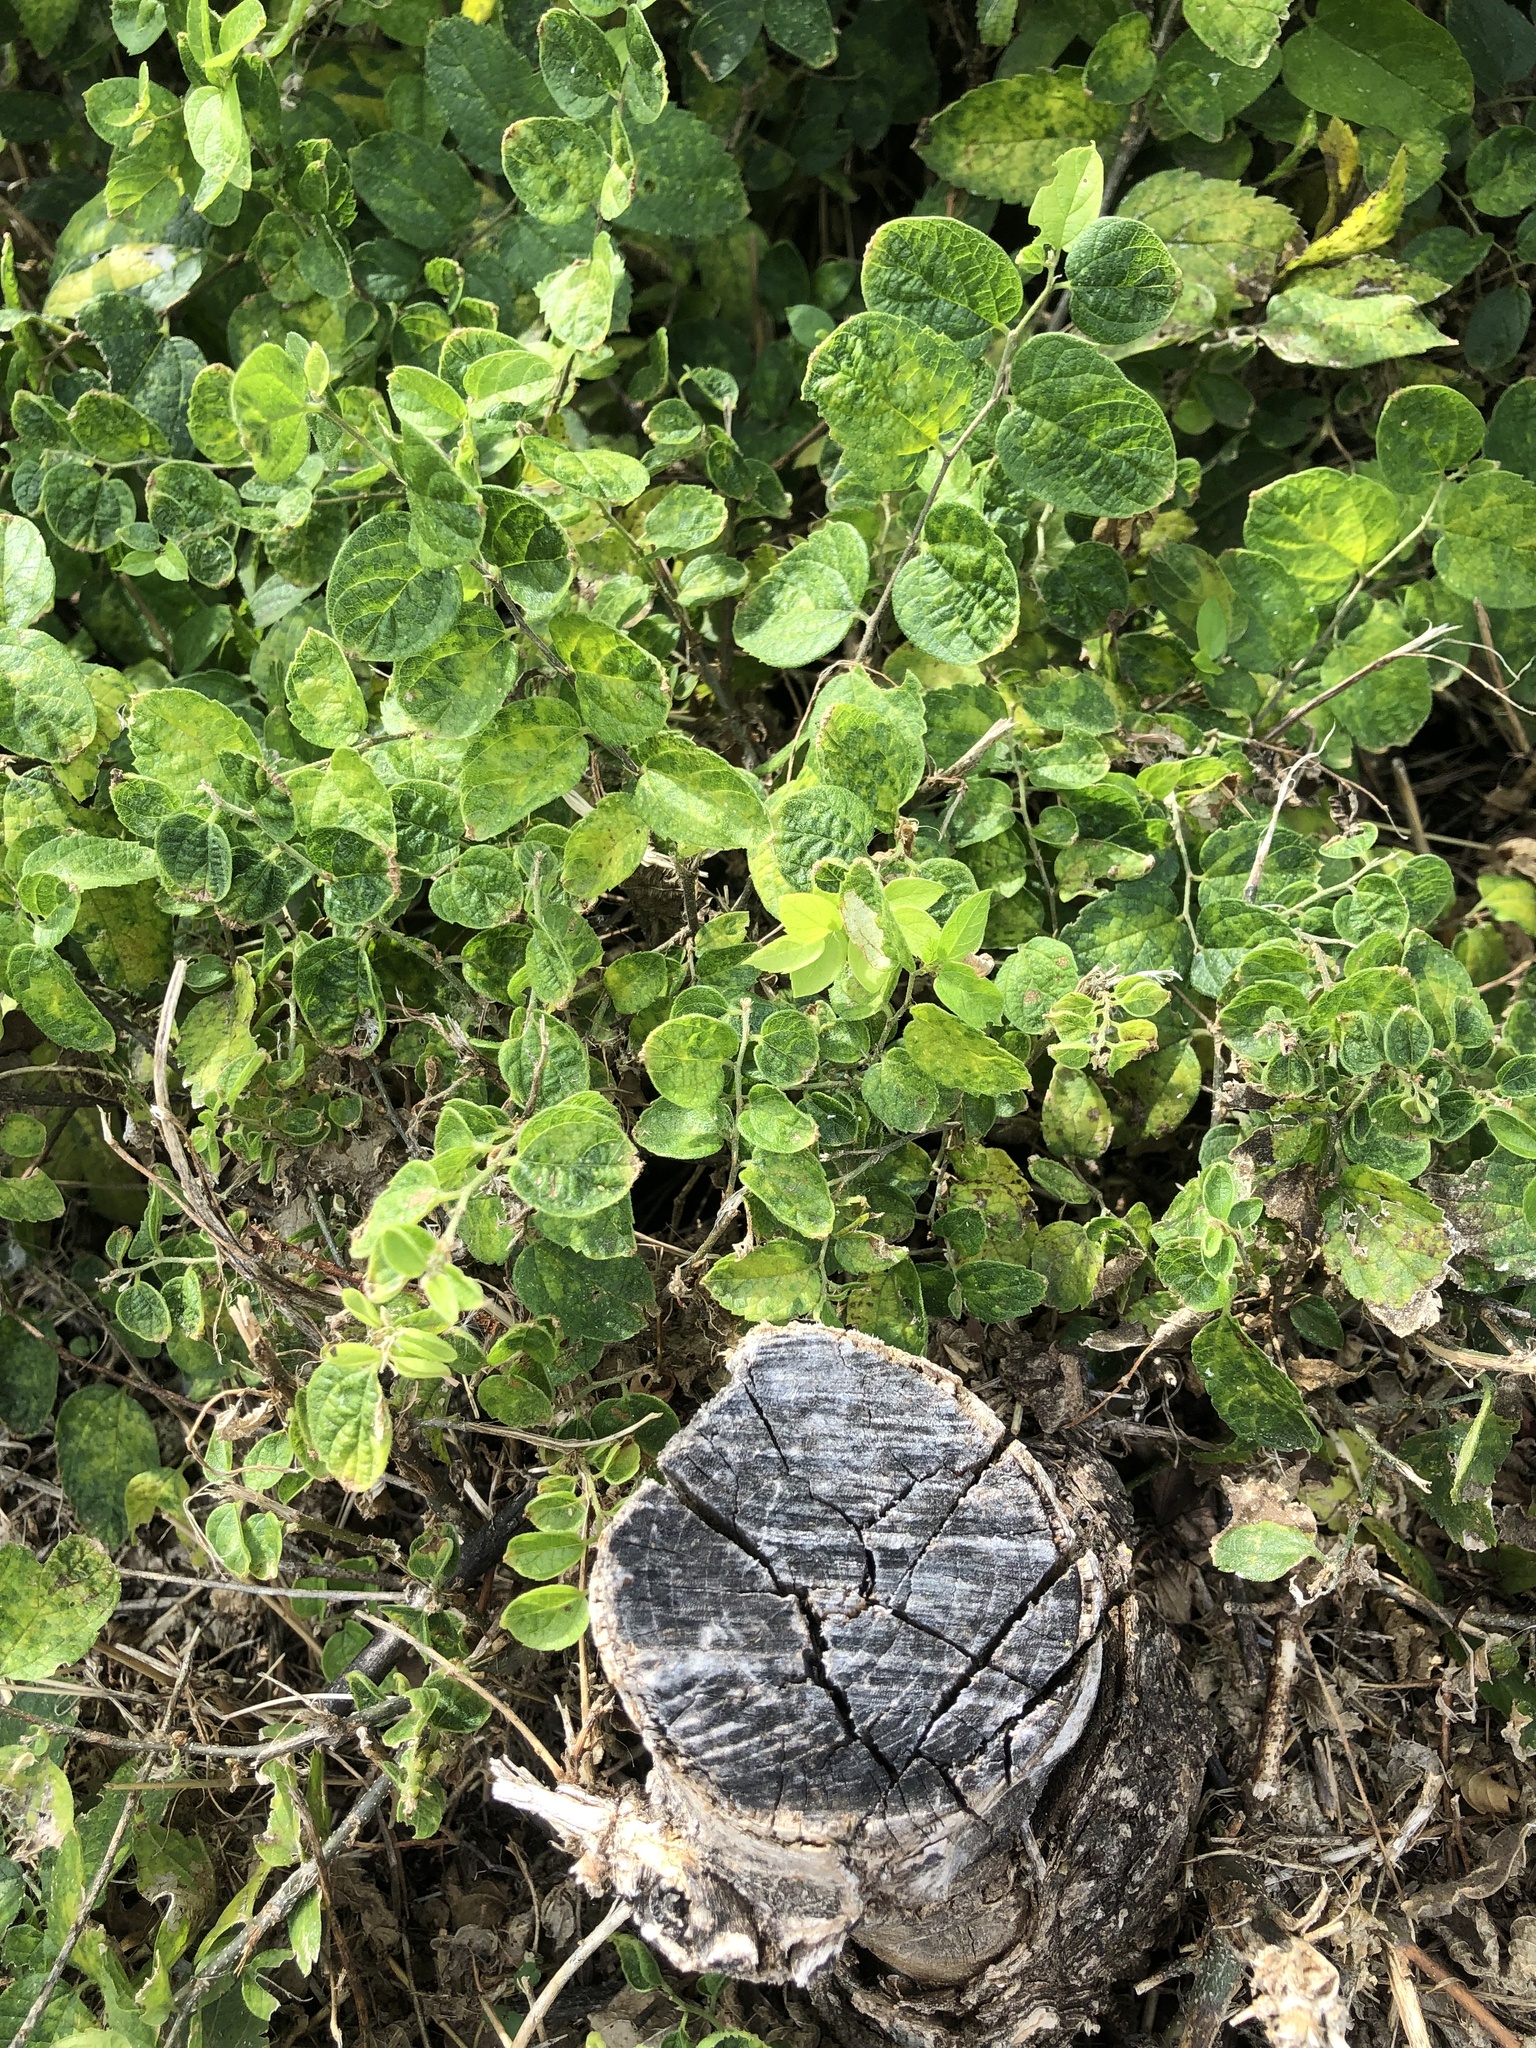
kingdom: Plantae
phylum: Tracheophyta
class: Magnoliopsida
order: Rosales
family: Cannabaceae
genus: Celtis
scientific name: Celtis reticulata
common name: Netleaf hackberry
